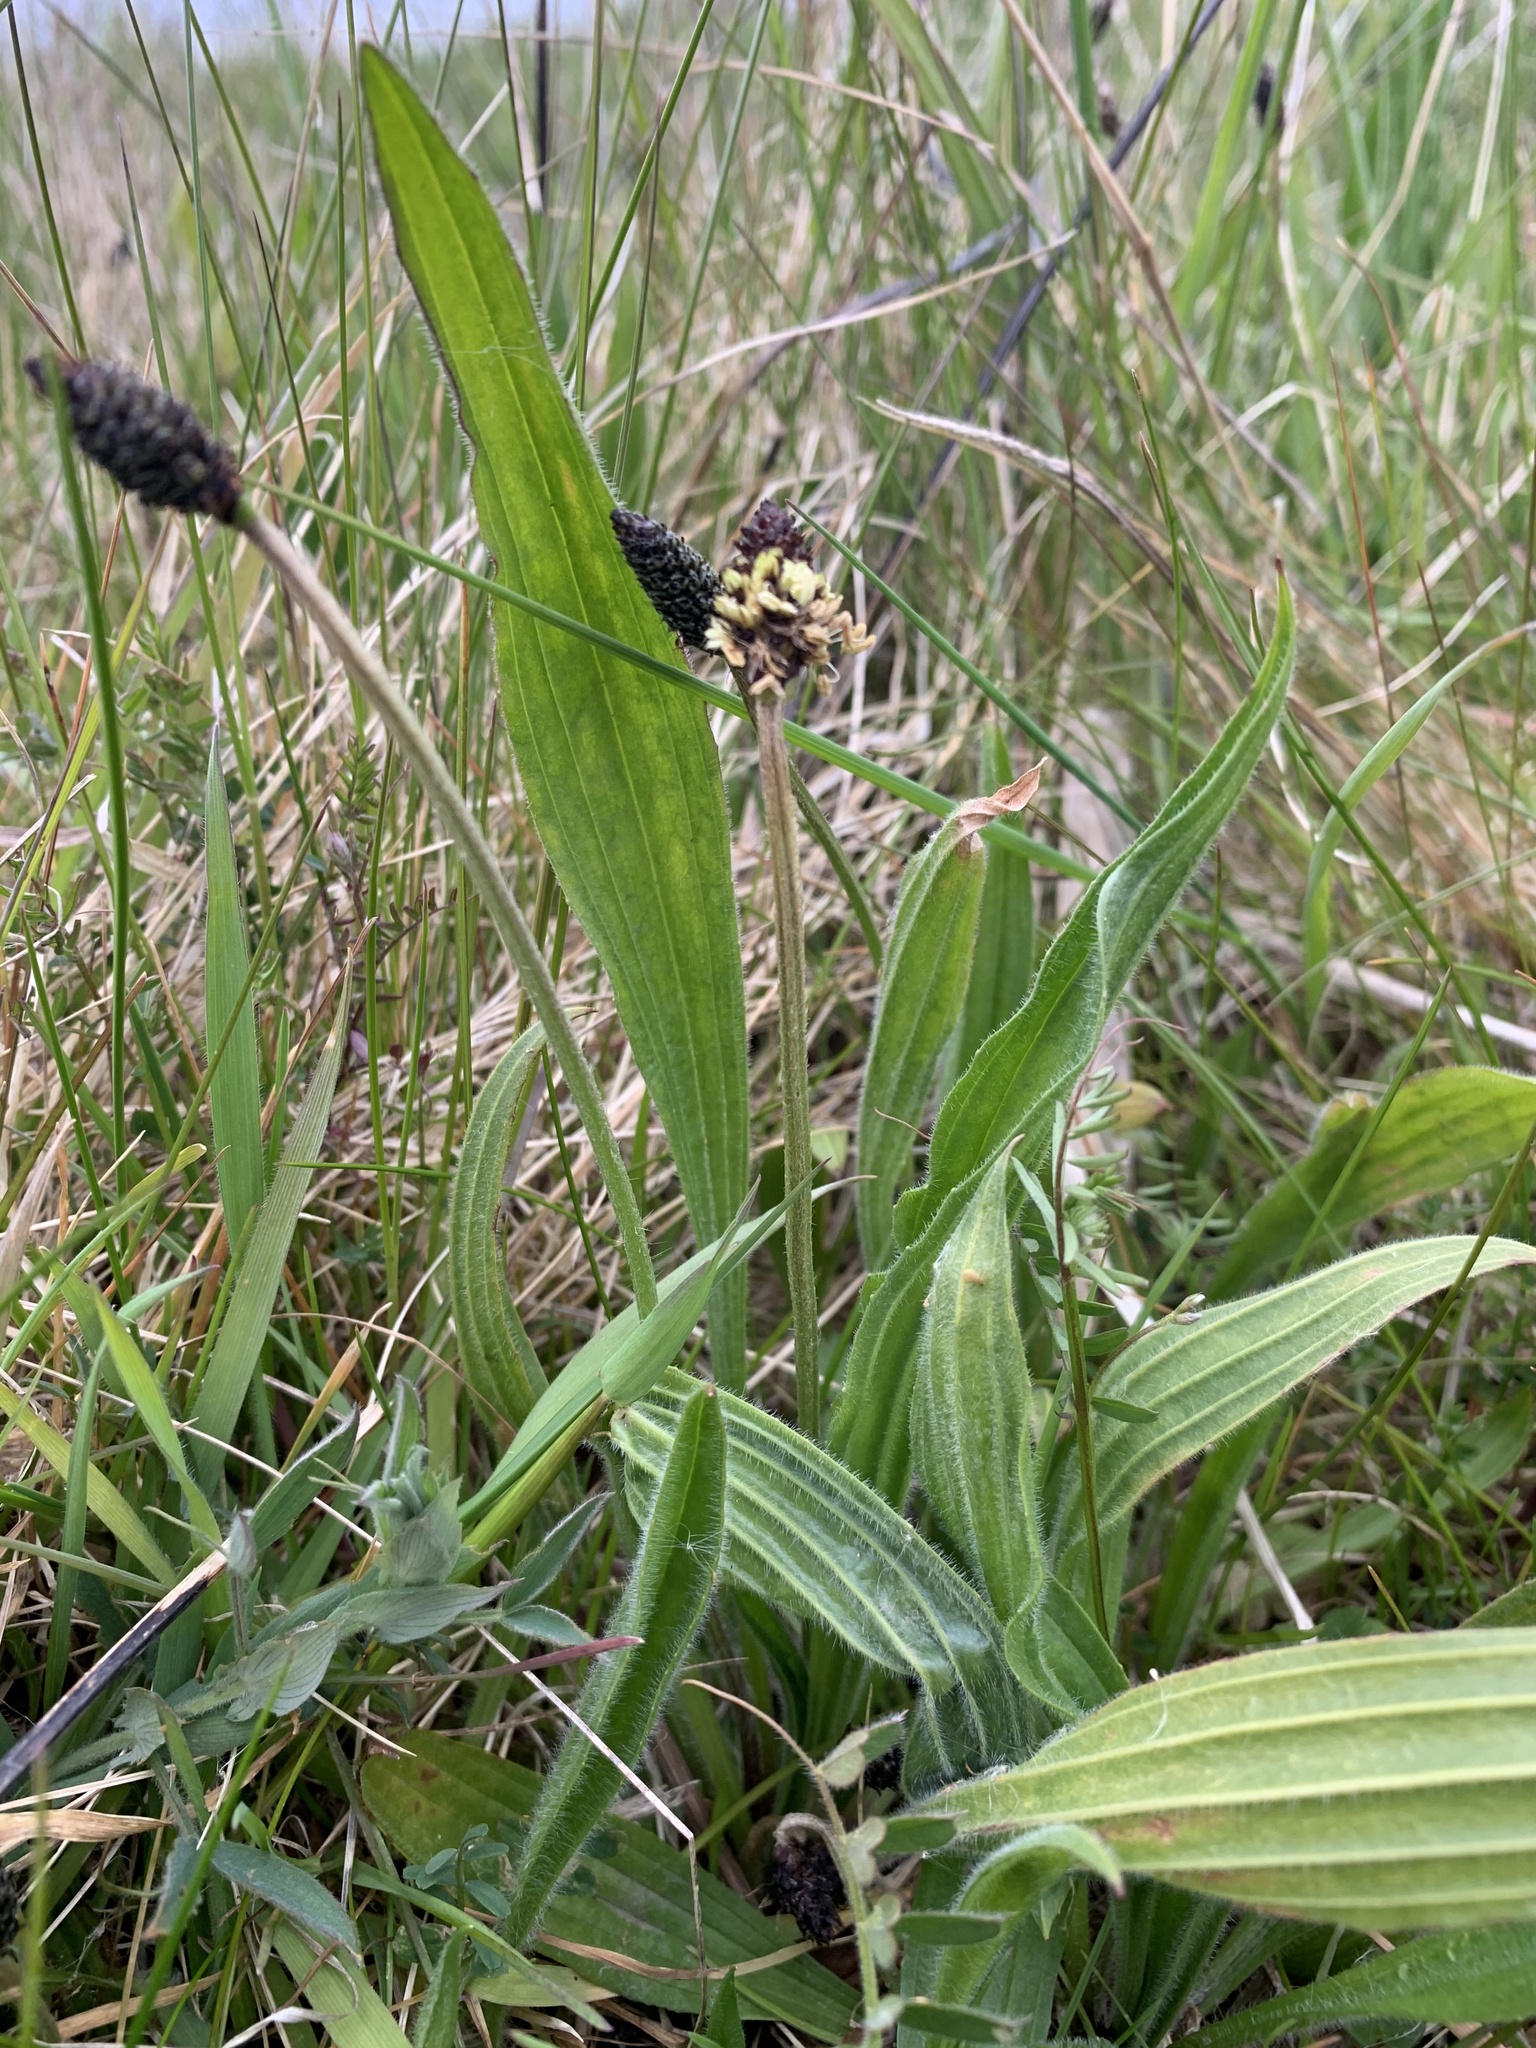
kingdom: Plantae
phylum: Tracheophyta
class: Magnoliopsida
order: Lamiales
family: Plantaginaceae
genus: Plantago
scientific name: Plantago lanceolata
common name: Ribwort plantain
